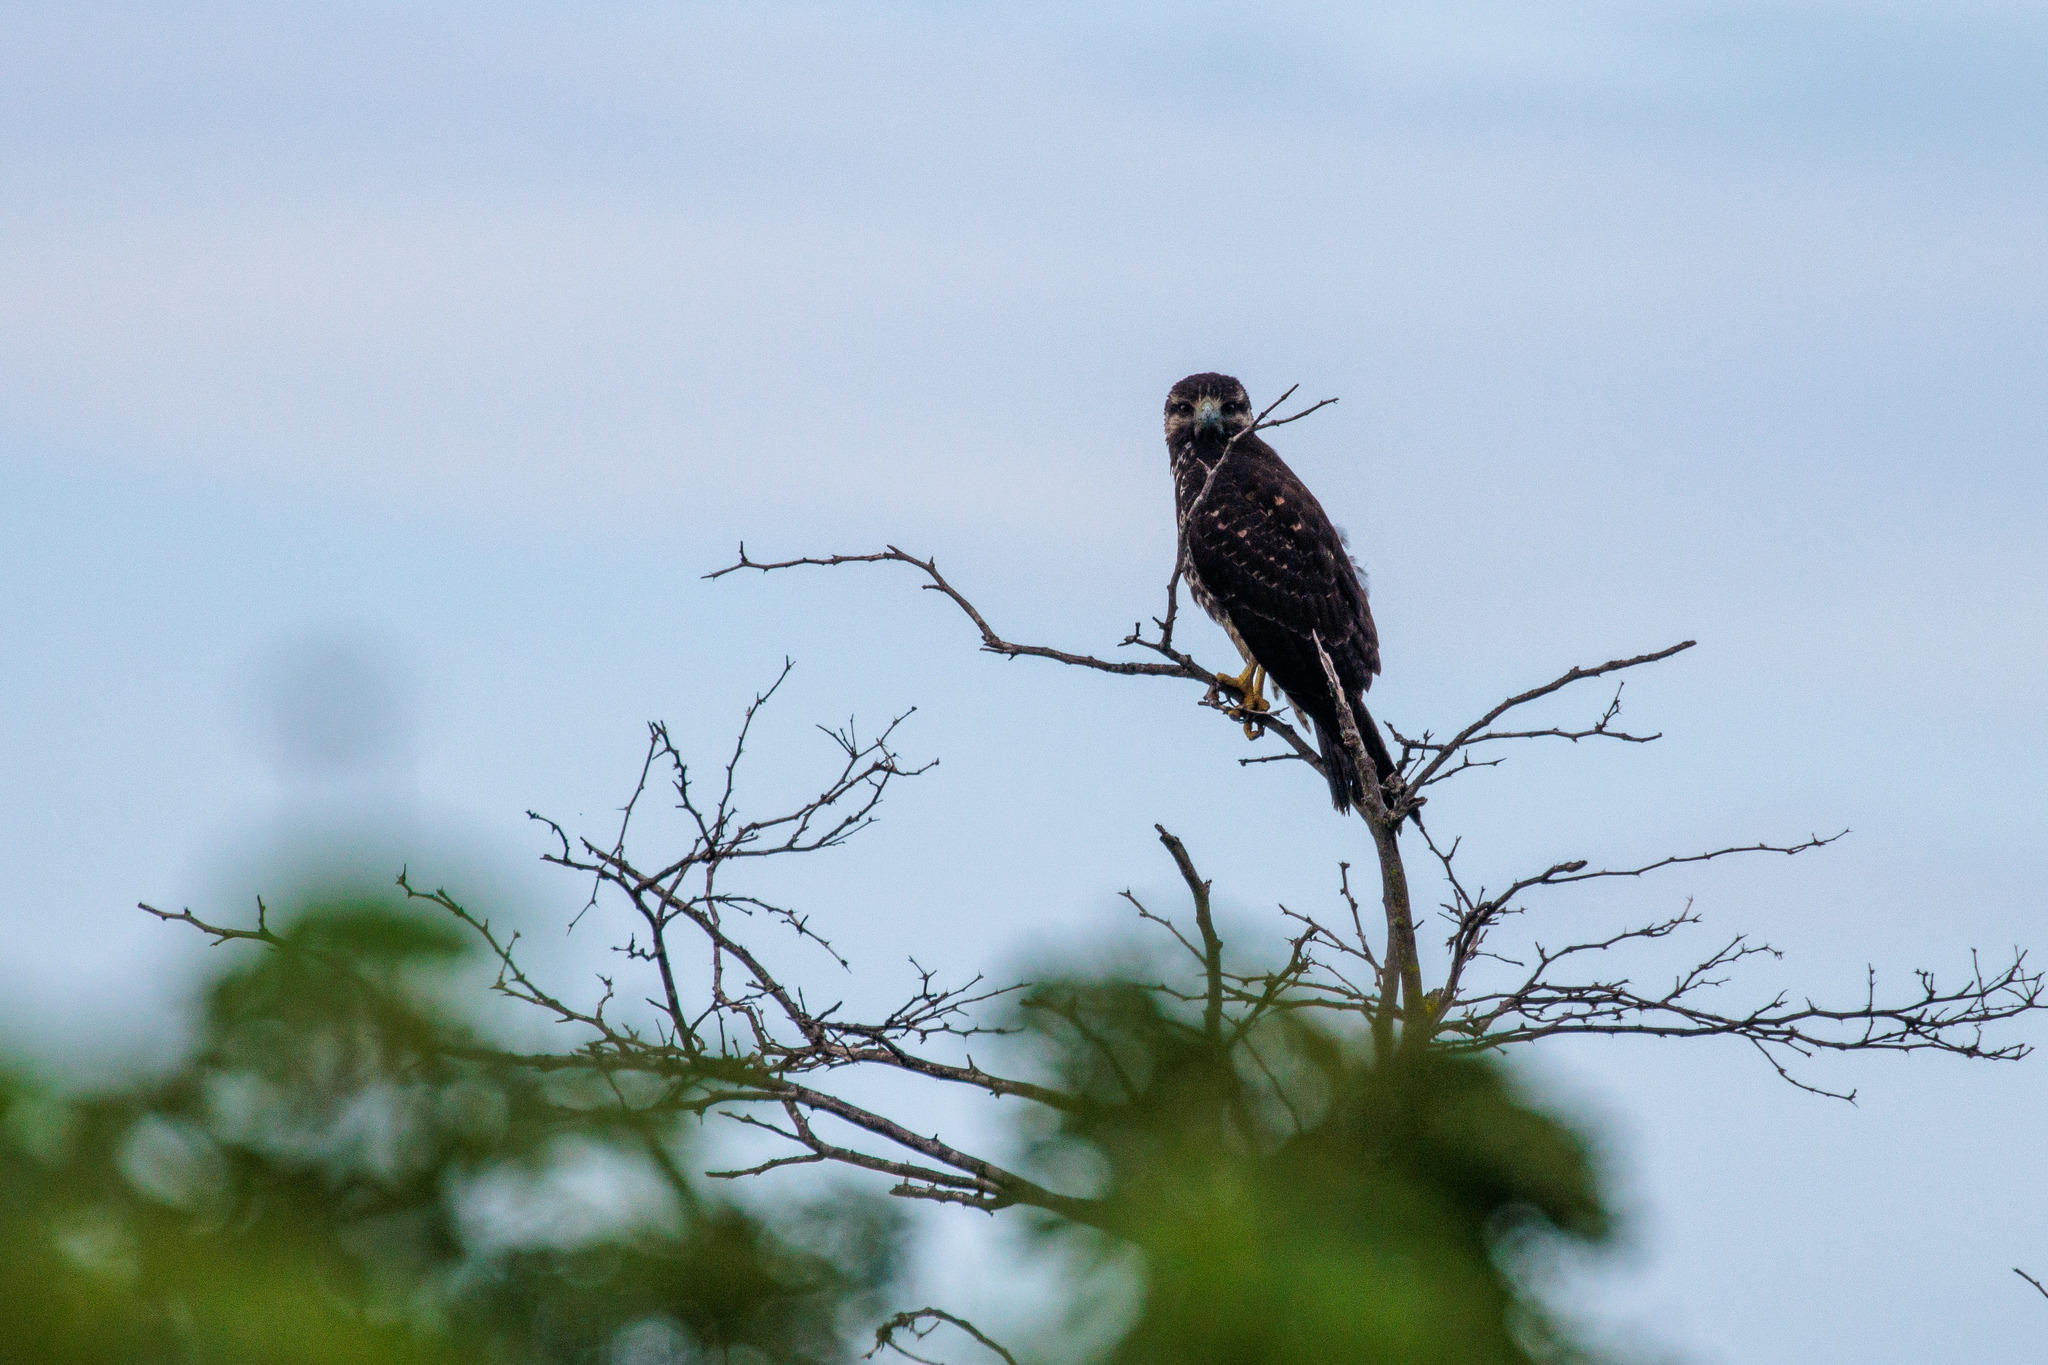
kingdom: Animalia
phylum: Chordata
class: Aves
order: Accipitriformes
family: Accipitridae
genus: Buteo
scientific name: Buteo albicaudatus
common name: White-tailed hawk
